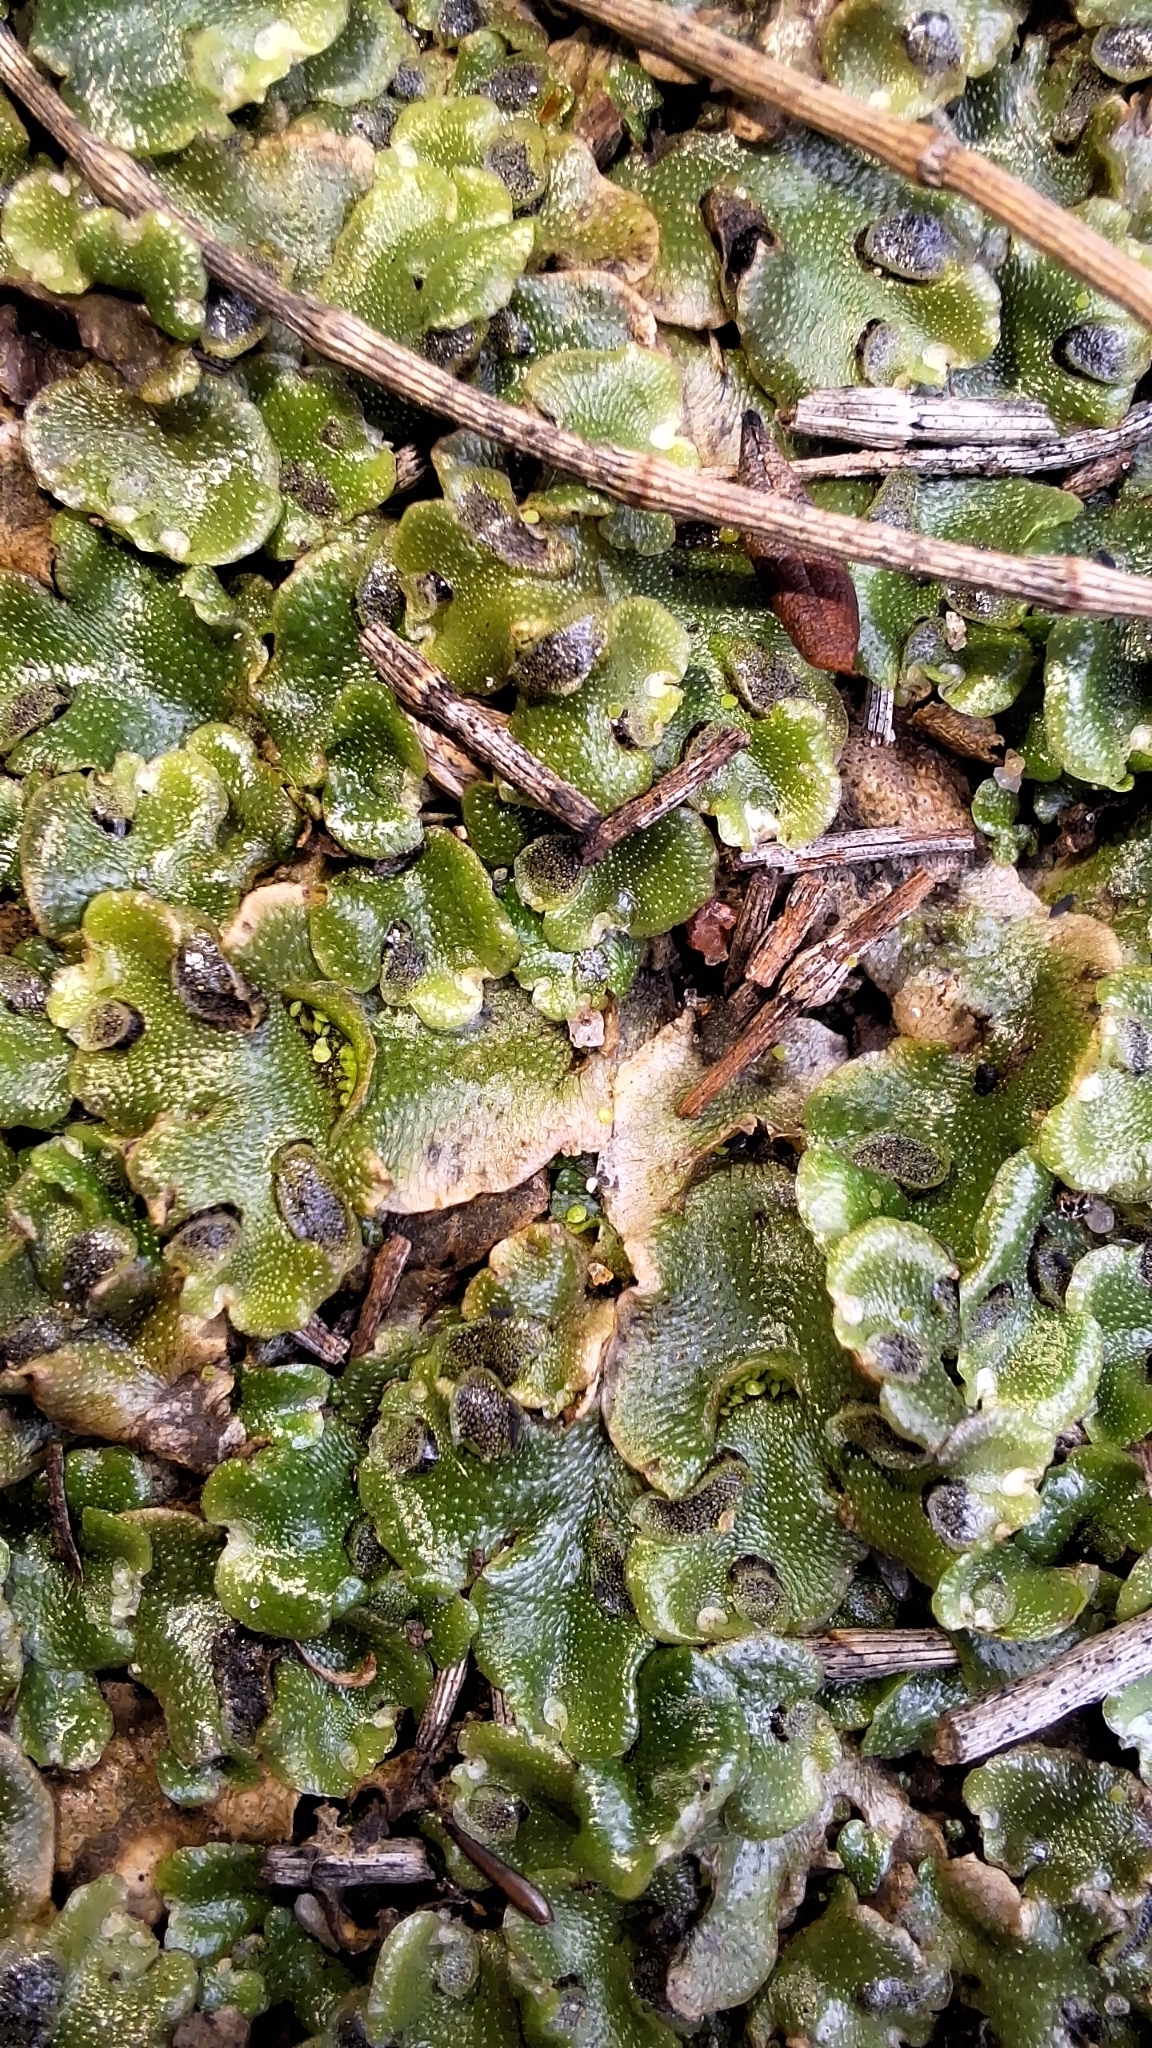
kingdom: Plantae
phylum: Marchantiophyta
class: Marchantiopsida
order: Lunulariales
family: Lunulariaceae
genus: Lunularia
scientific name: Lunularia cruciata
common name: Crescent-cup liverwort
